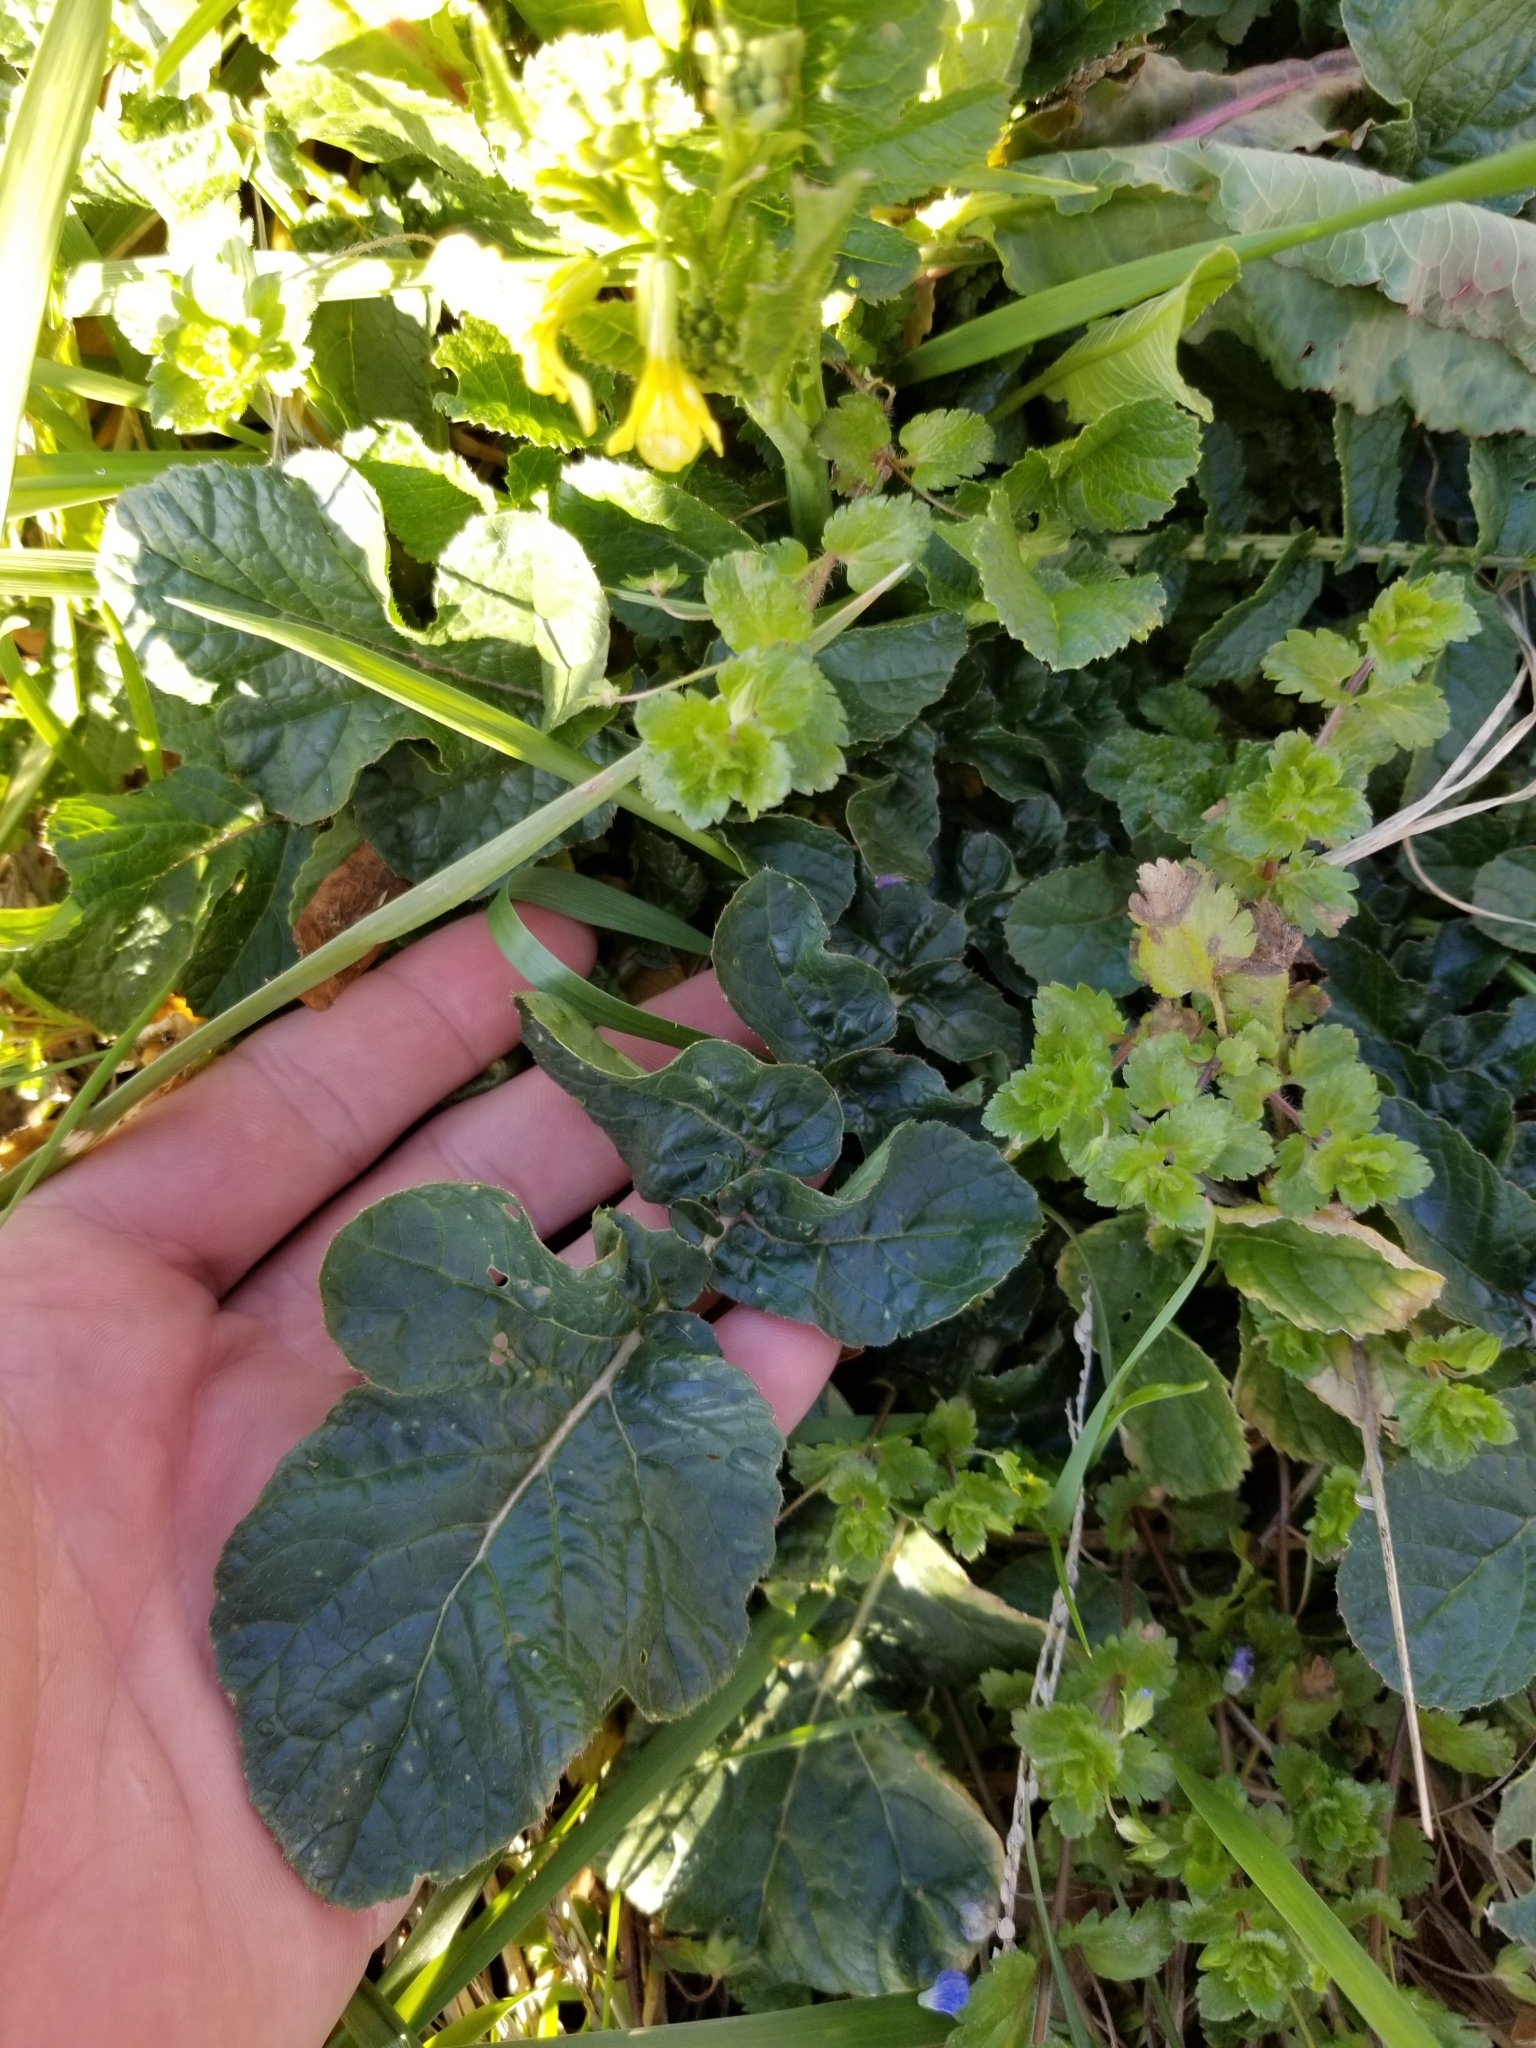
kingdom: Plantae
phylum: Tracheophyta
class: Magnoliopsida
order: Brassicales
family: Brassicaceae
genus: Raphanus
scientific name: Raphanus raphanistrum
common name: Wild radish
